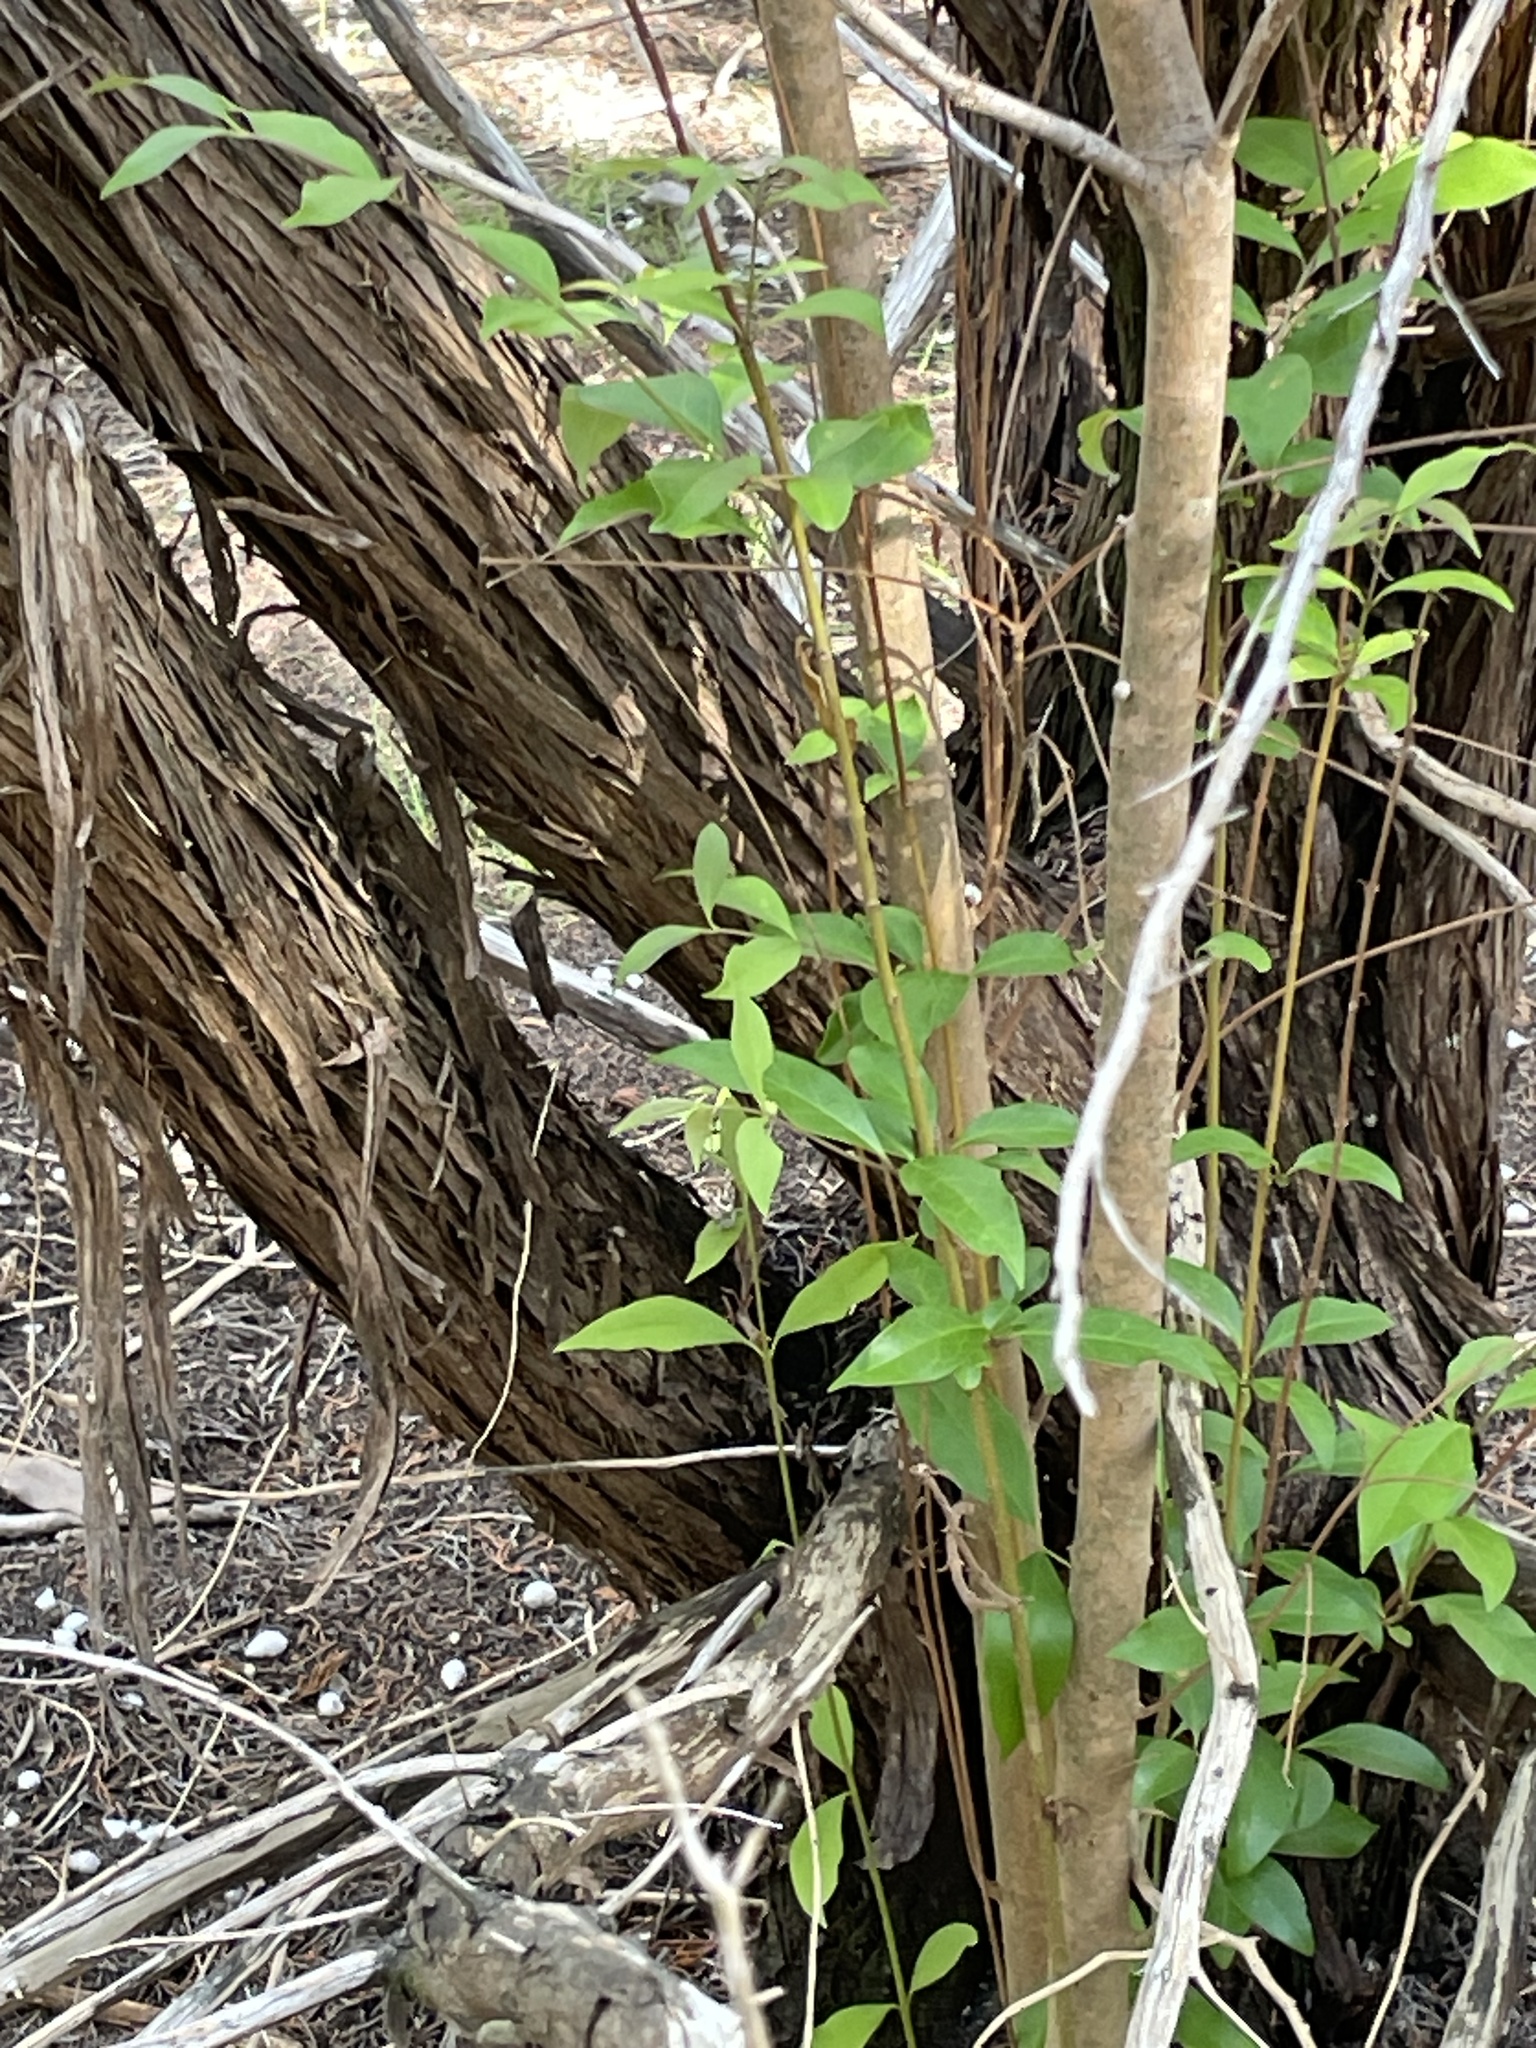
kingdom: Plantae
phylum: Tracheophyta
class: Magnoliopsida
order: Lamiales
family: Oleaceae
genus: Ligustrum
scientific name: Ligustrum lucidum
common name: Glossy privet
